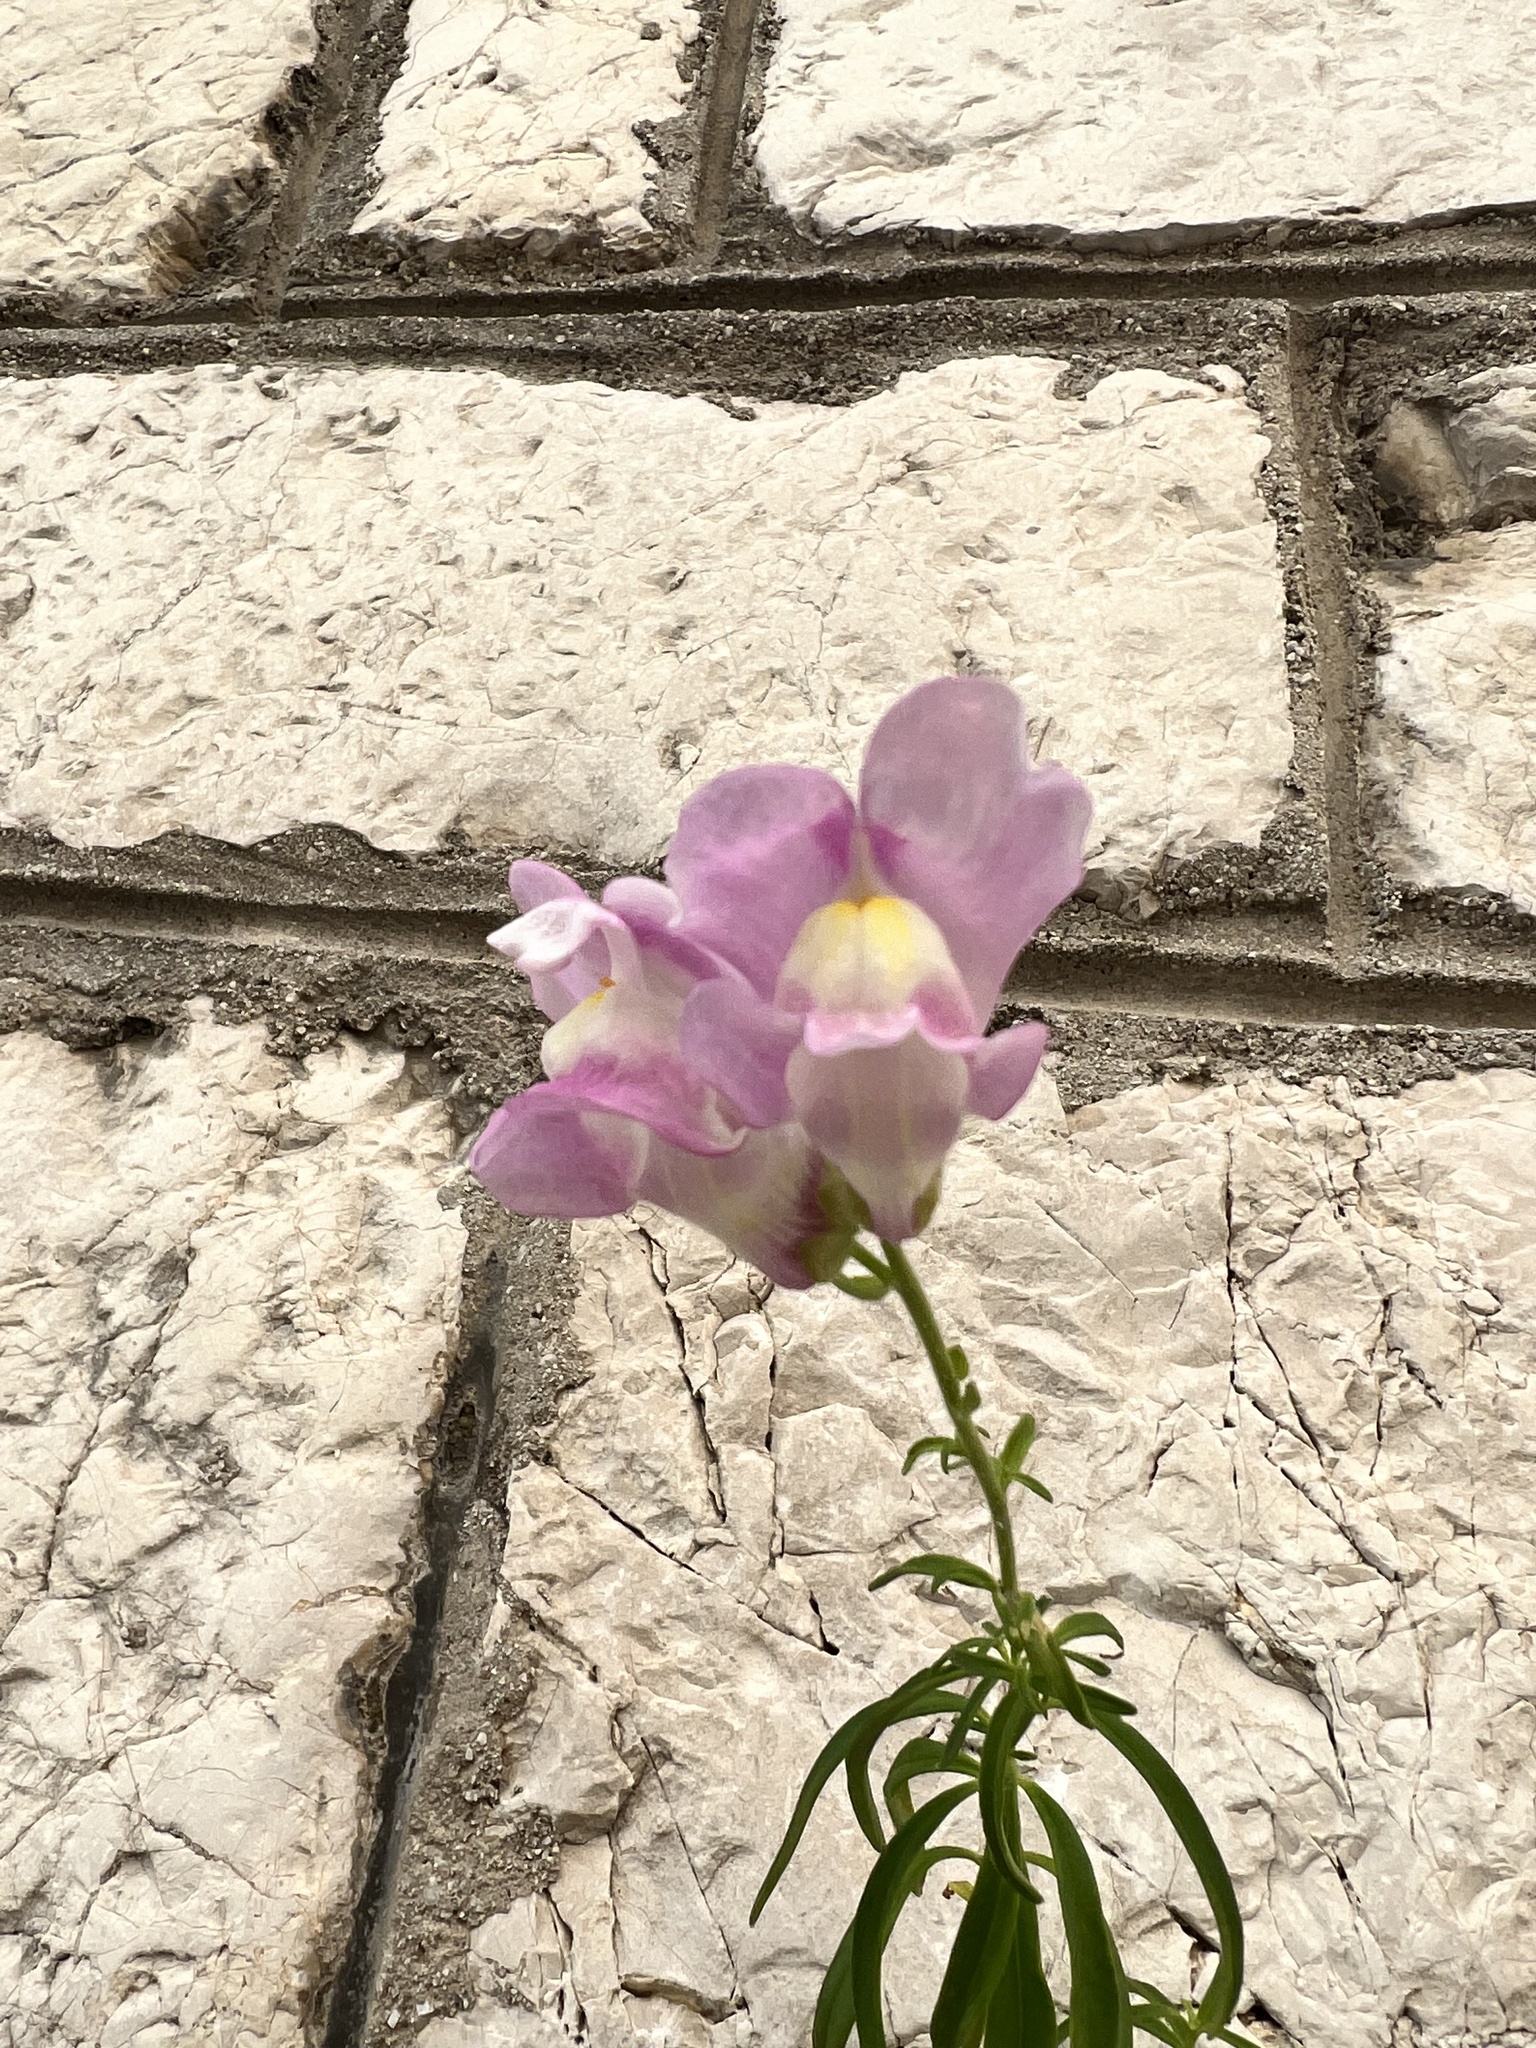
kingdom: Plantae
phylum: Tracheophyta
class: Magnoliopsida
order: Lamiales
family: Plantaginaceae
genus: Antirrhinum
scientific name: Antirrhinum tortuosum
